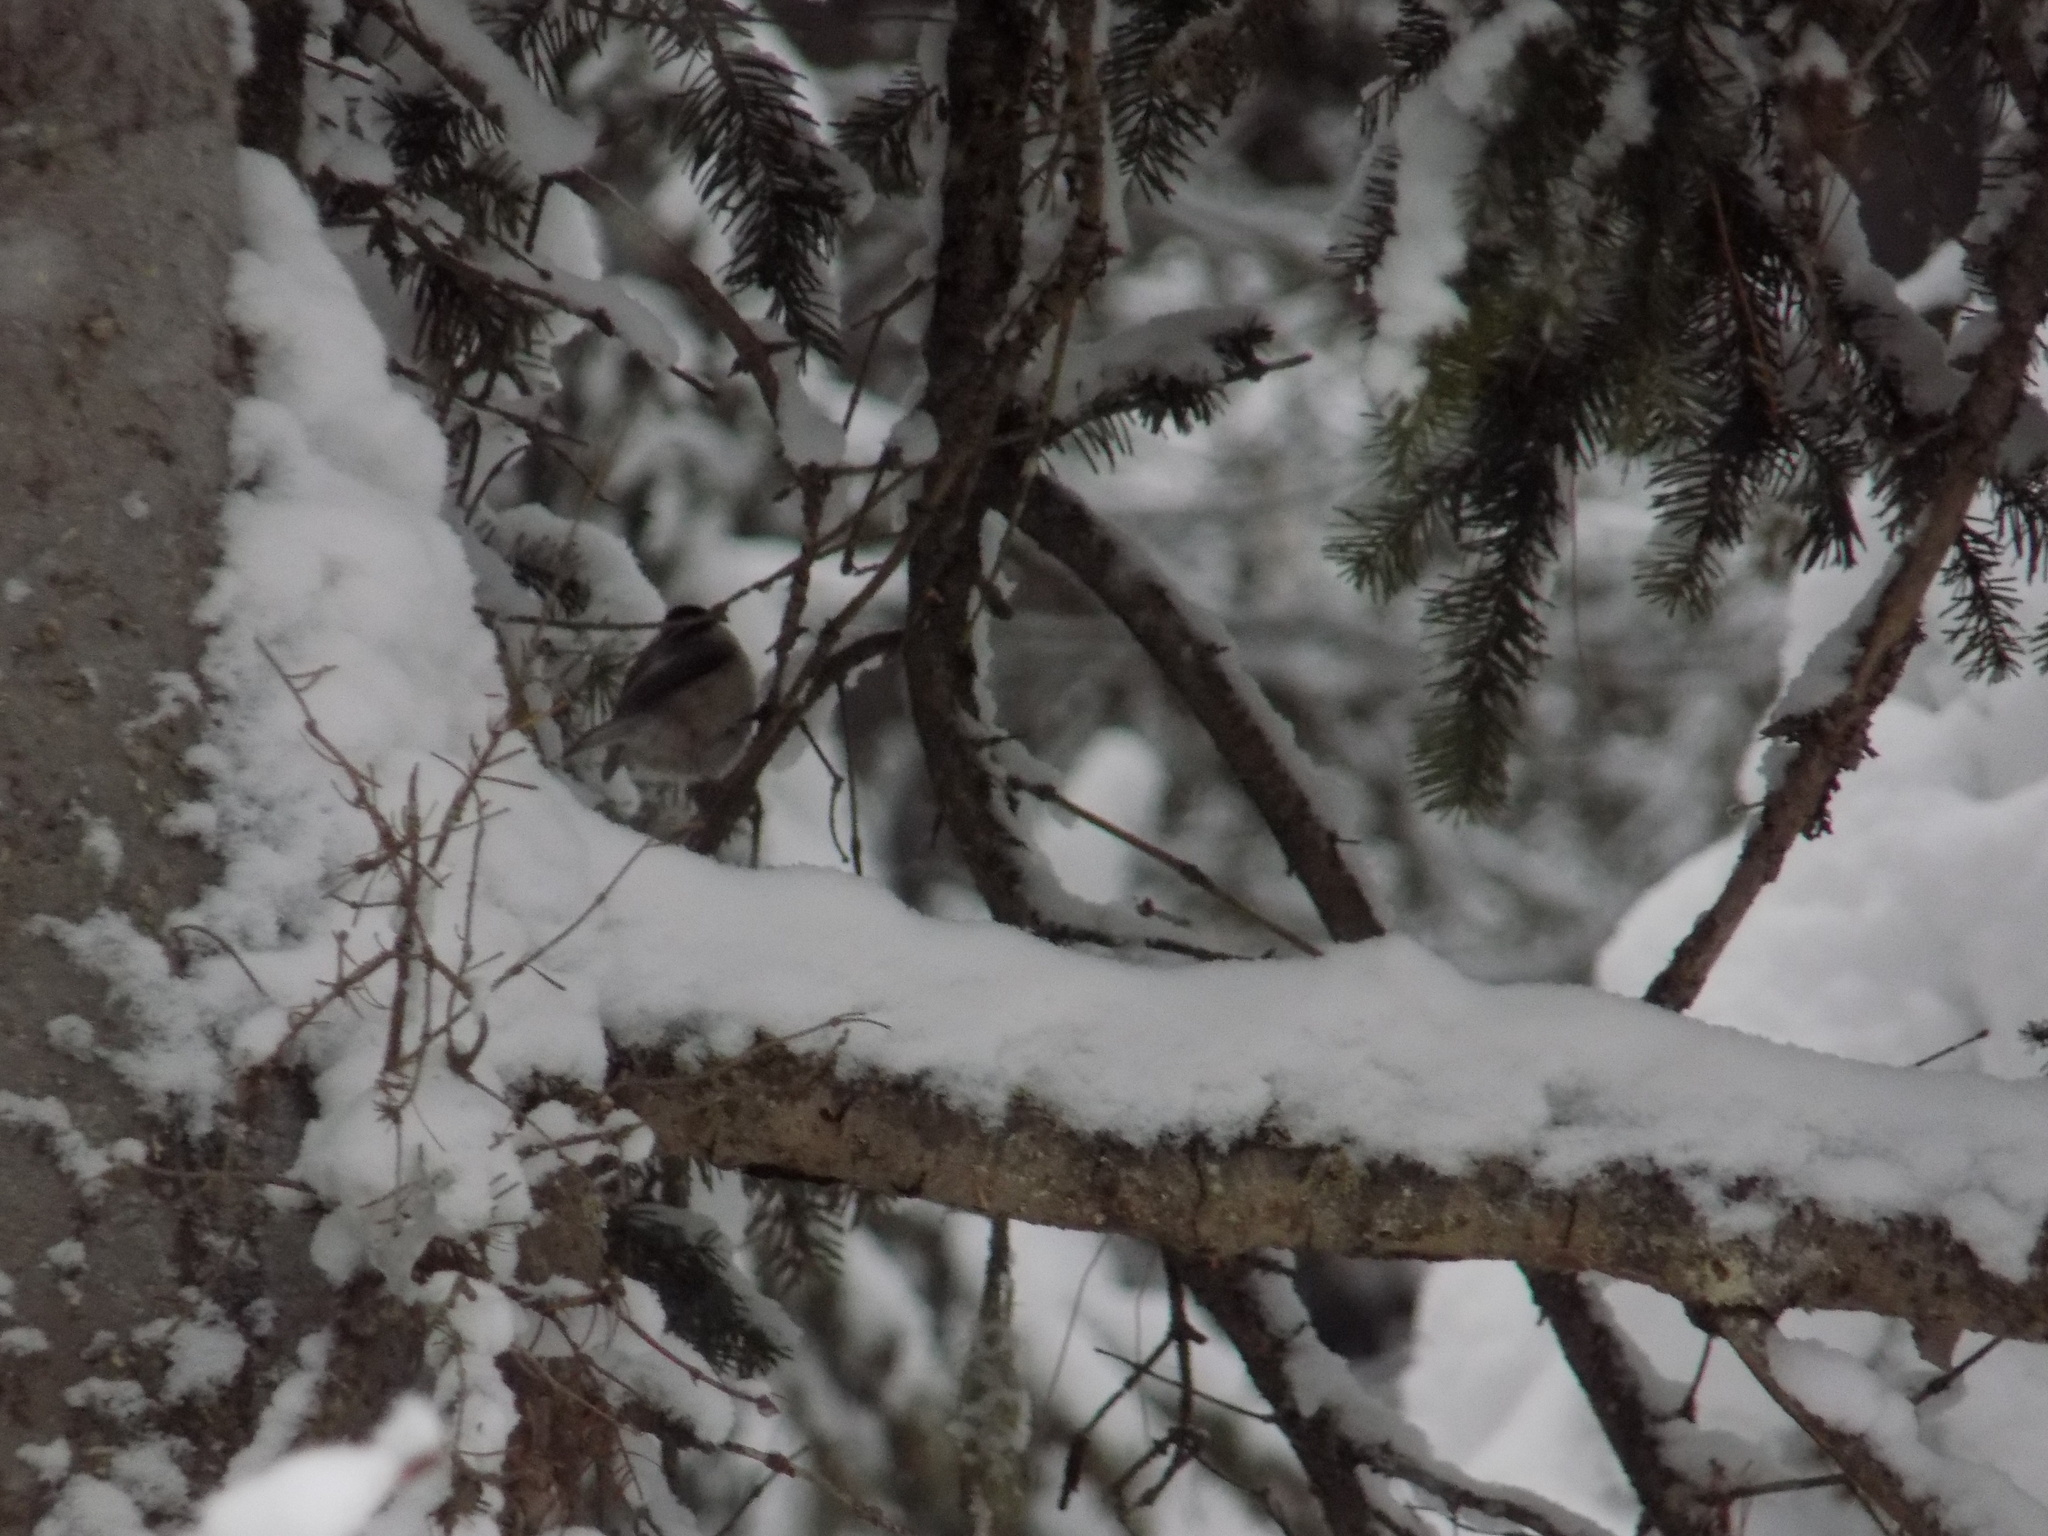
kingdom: Animalia
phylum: Chordata
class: Aves
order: Passeriformes
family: Paridae
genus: Poecile
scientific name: Poecile montanus
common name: Willow tit
